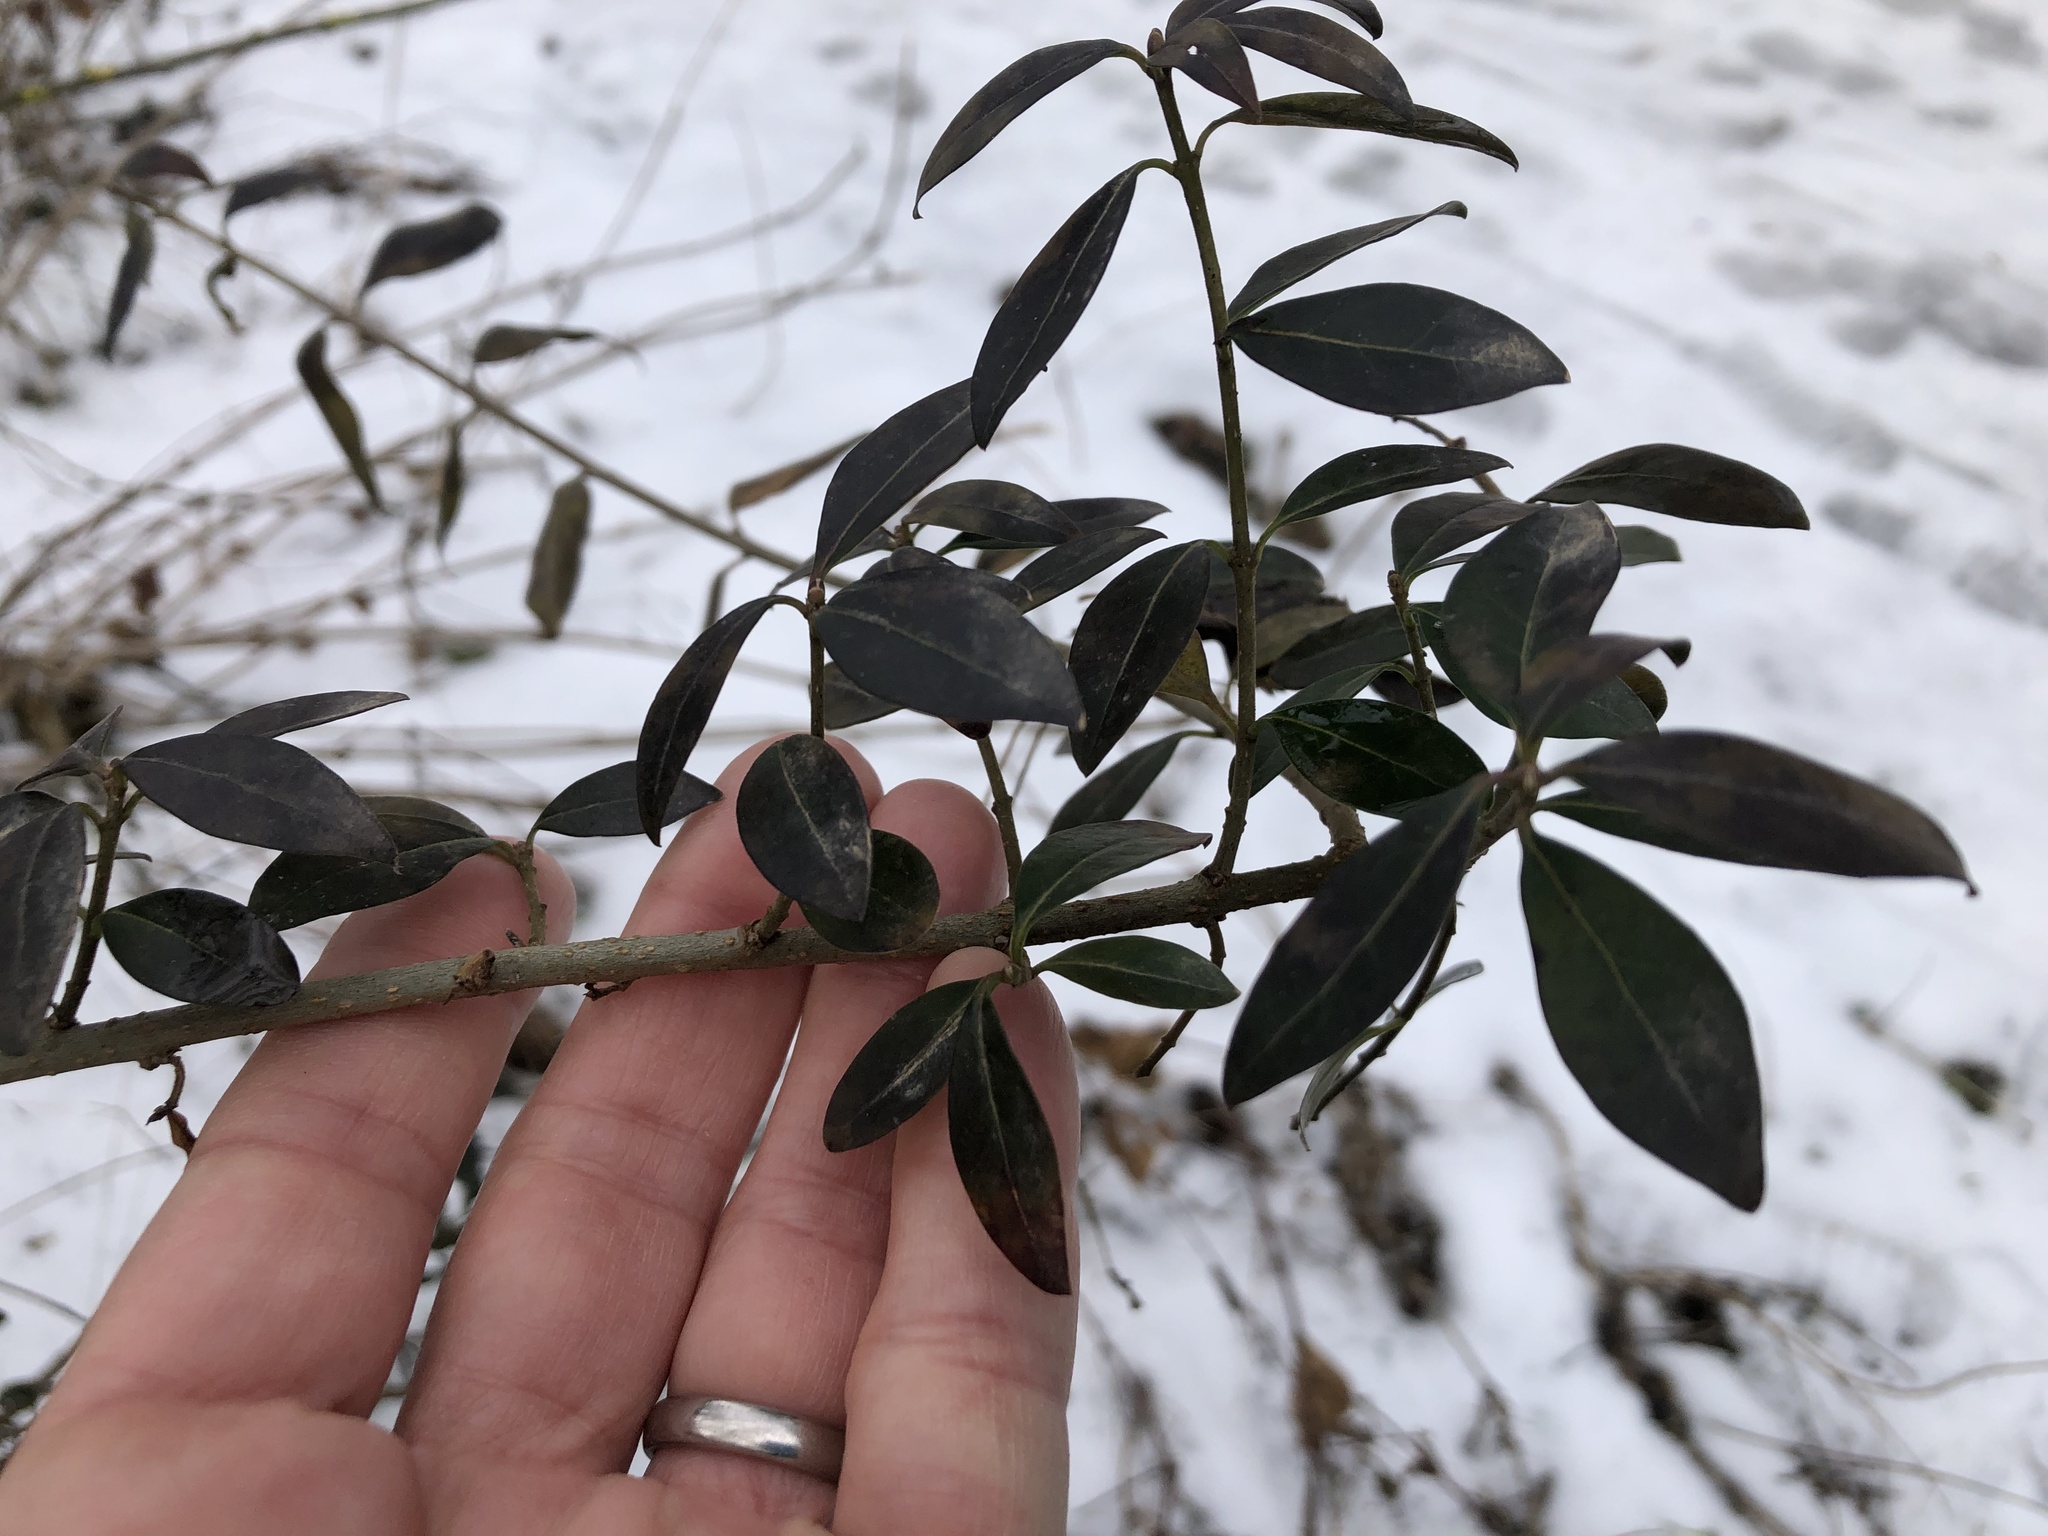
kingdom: Plantae
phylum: Tracheophyta
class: Magnoliopsida
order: Lamiales
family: Oleaceae
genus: Ligustrum
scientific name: Ligustrum vulgare
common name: Wild privet
